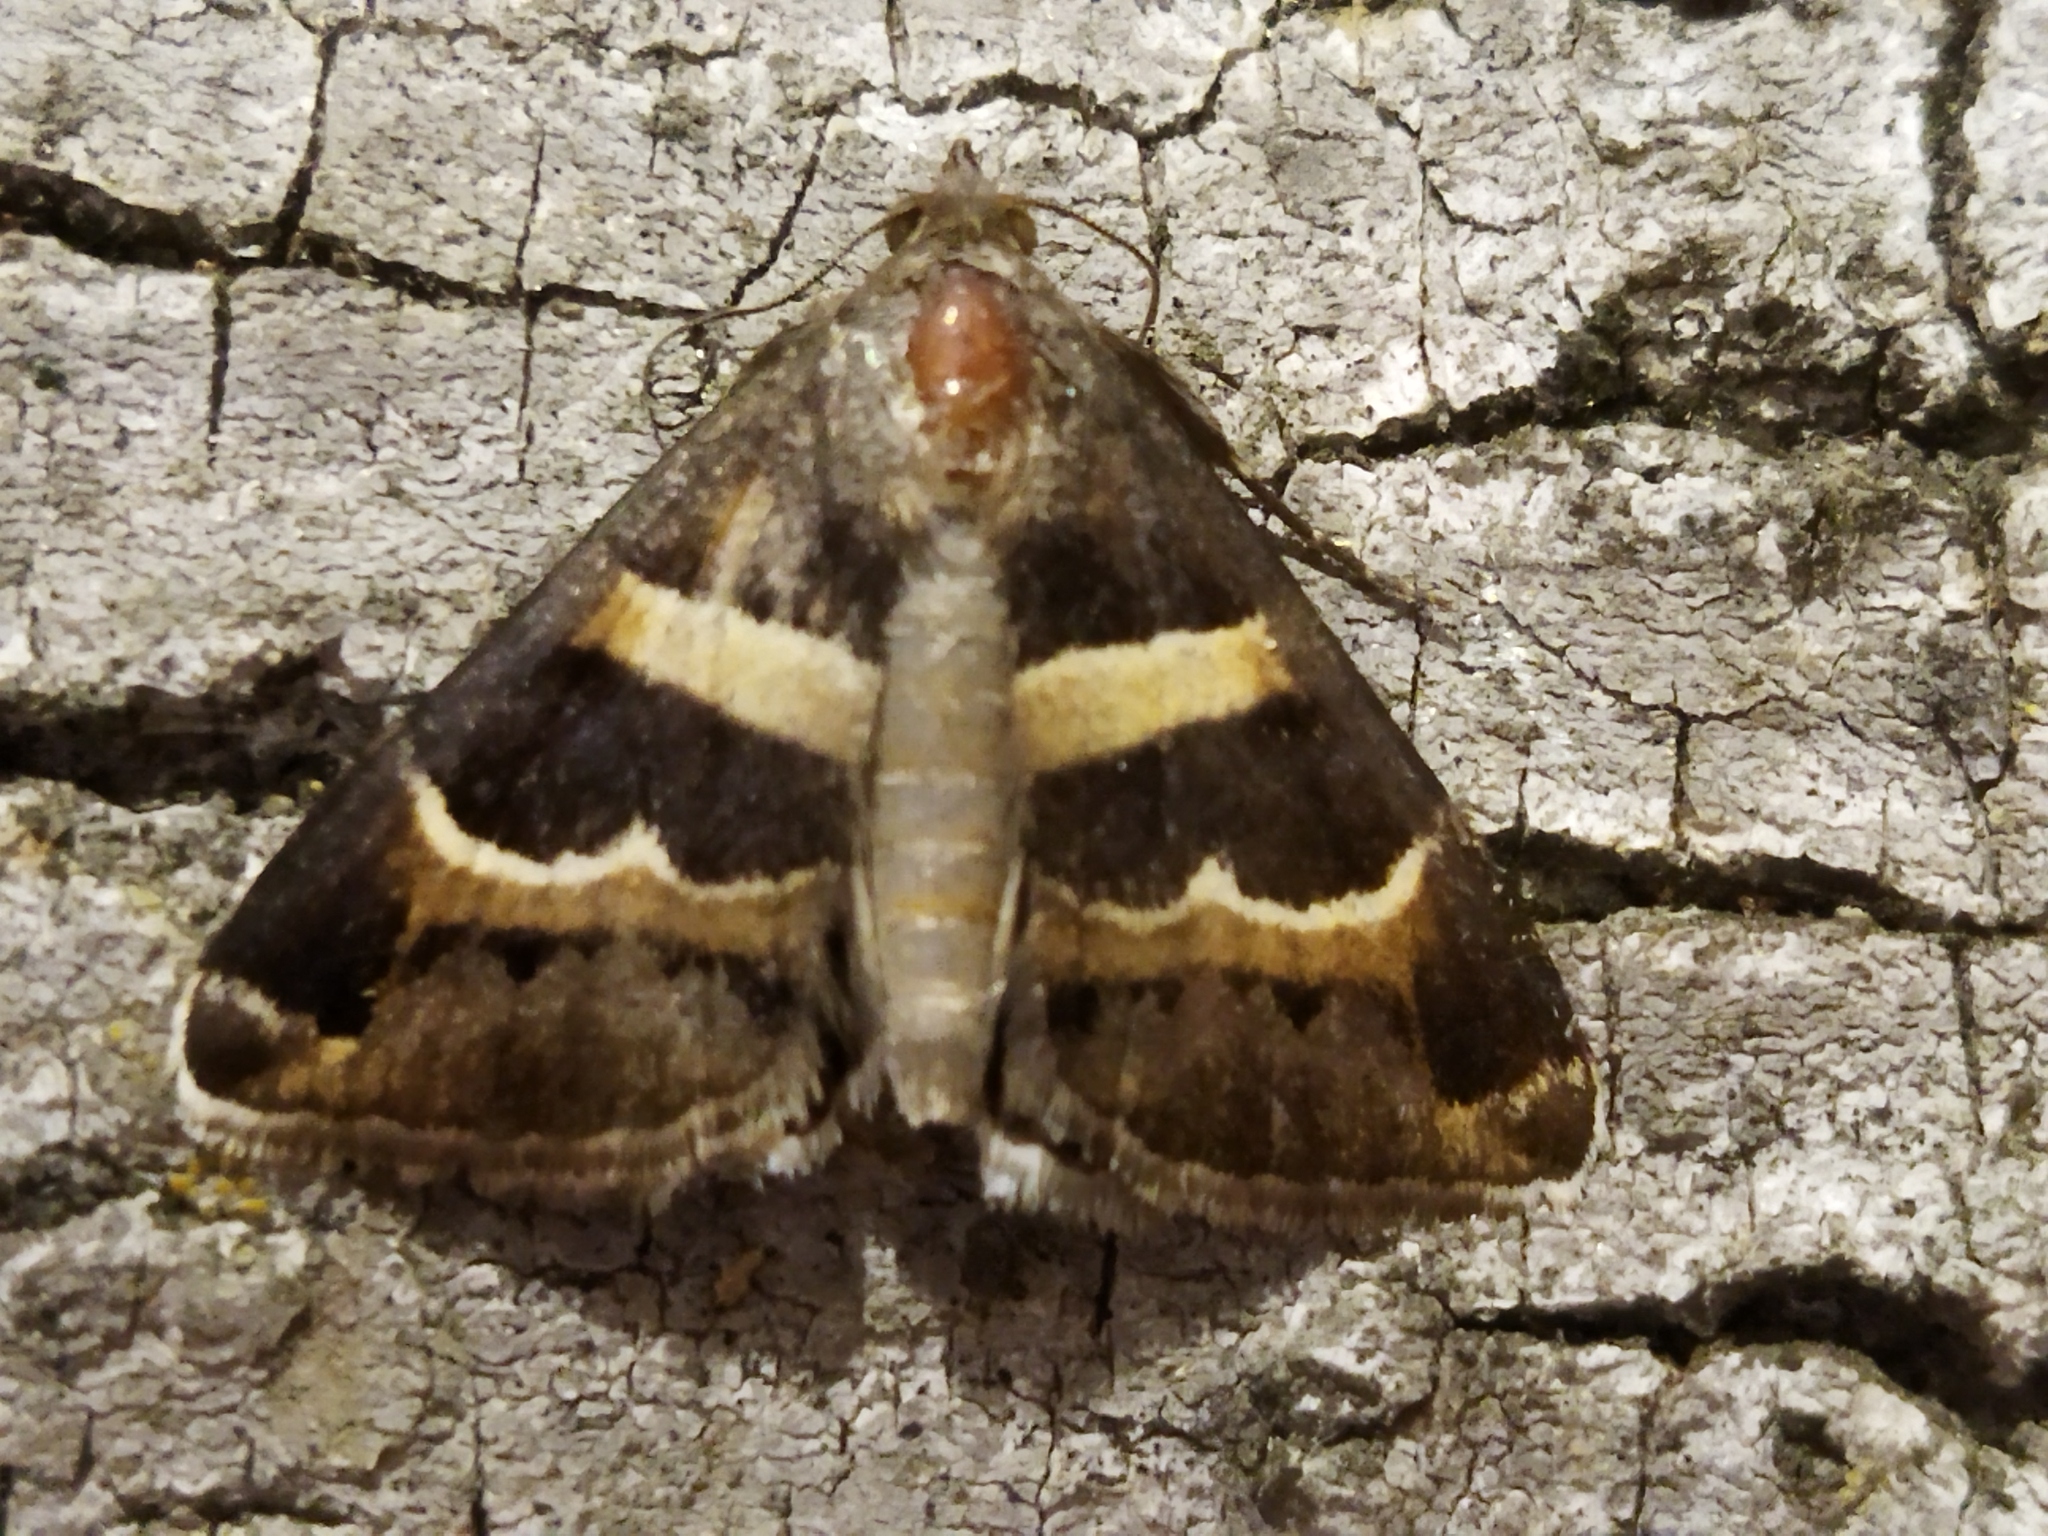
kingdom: Animalia
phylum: Arthropoda
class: Insecta
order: Lepidoptera
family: Erebidae
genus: Grammodes
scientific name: Grammodes stolida
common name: Geometrician
